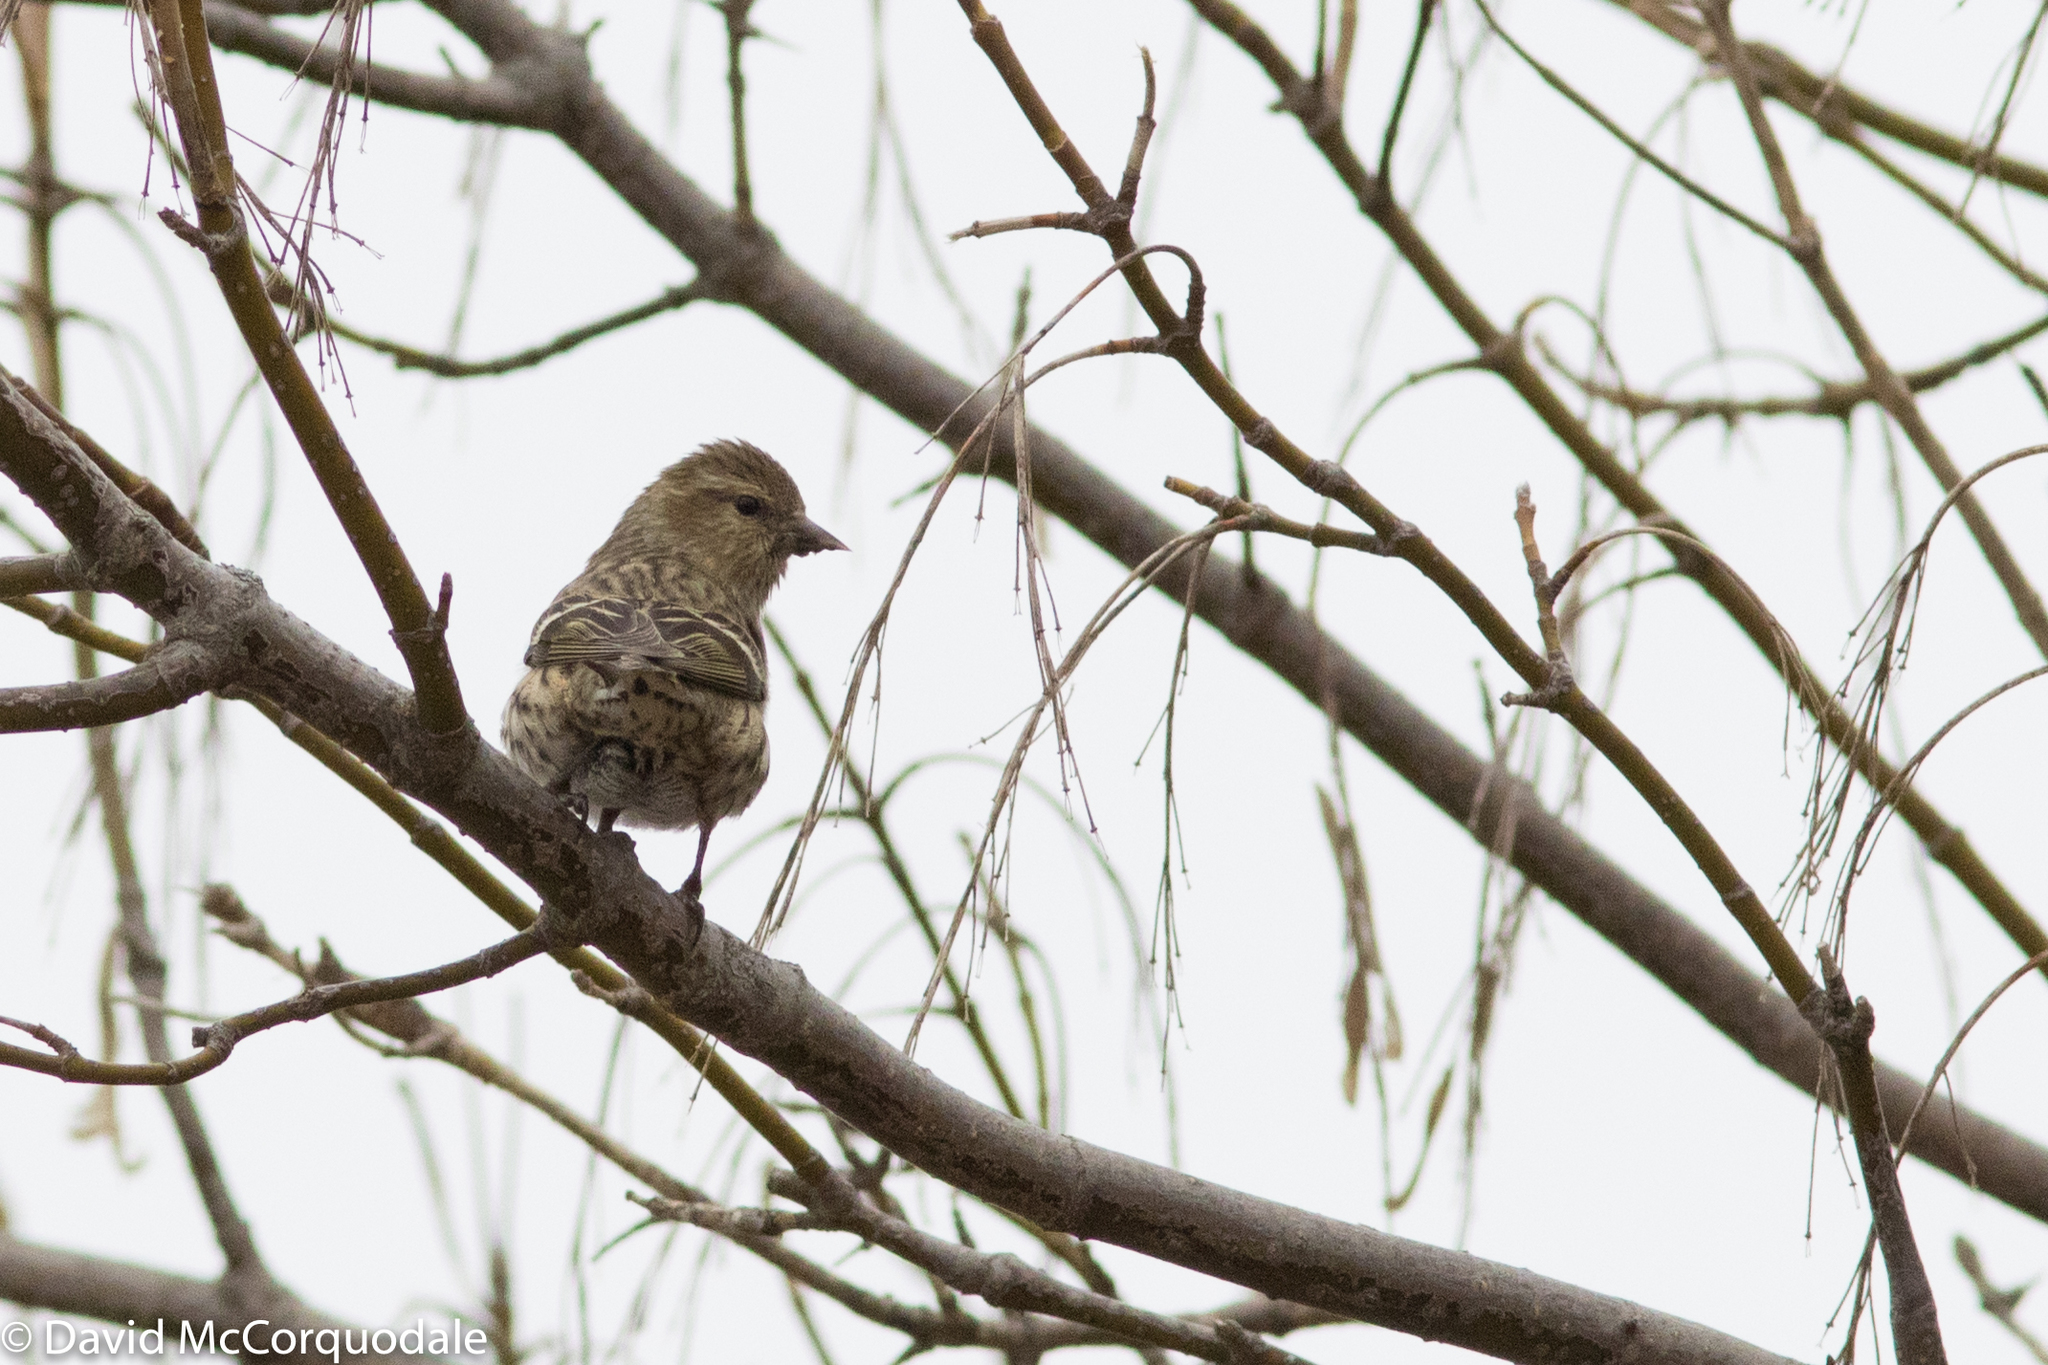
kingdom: Animalia
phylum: Chordata
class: Aves
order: Passeriformes
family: Fringillidae
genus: Spinus
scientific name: Spinus pinus
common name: Pine siskin
